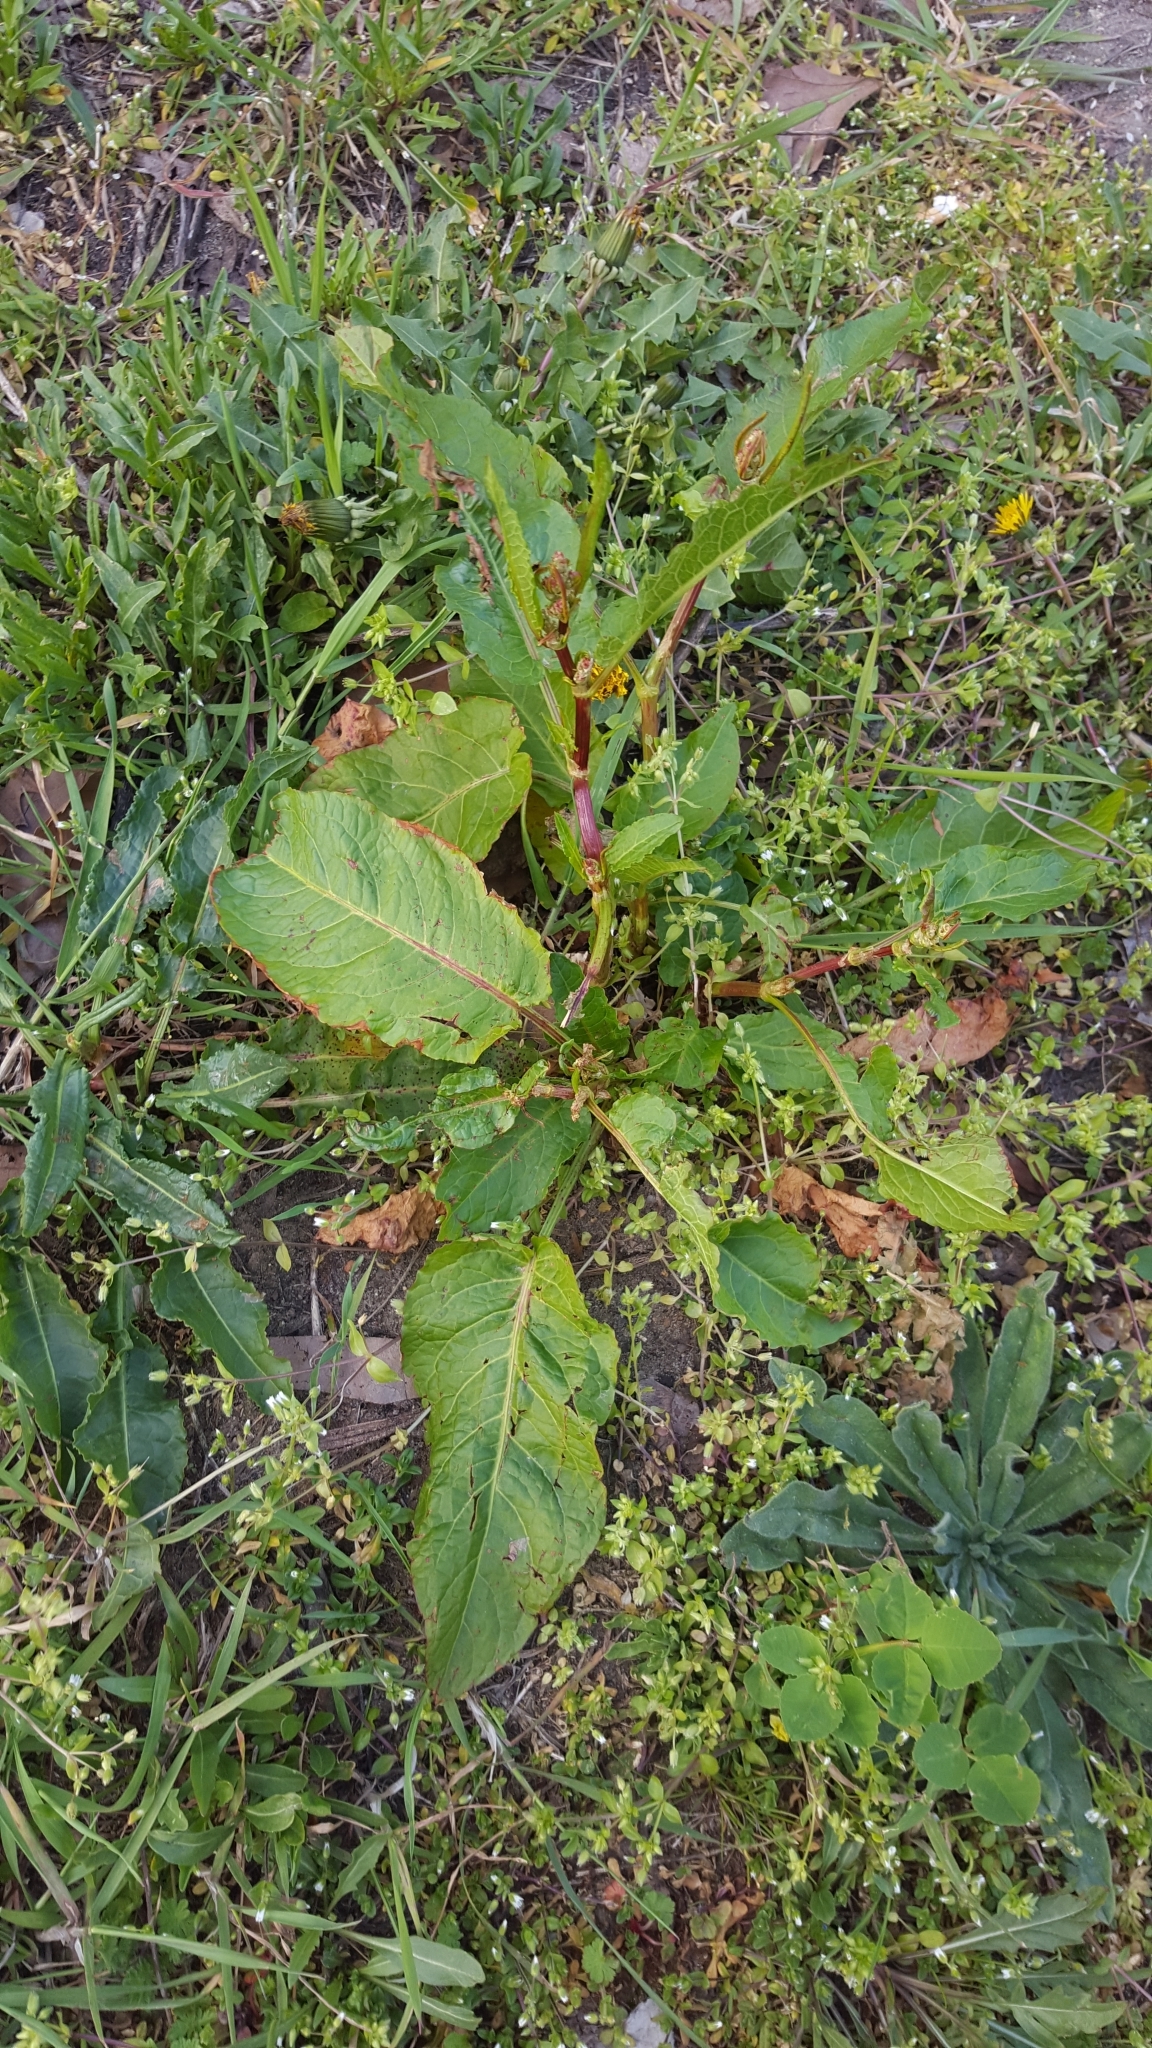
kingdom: Plantae
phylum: Tracheophyta
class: Magnoliopsida
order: Caryophyllales
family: Polygonaceae
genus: Rumex
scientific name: Rumex obtusifolius
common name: Bitter dock
